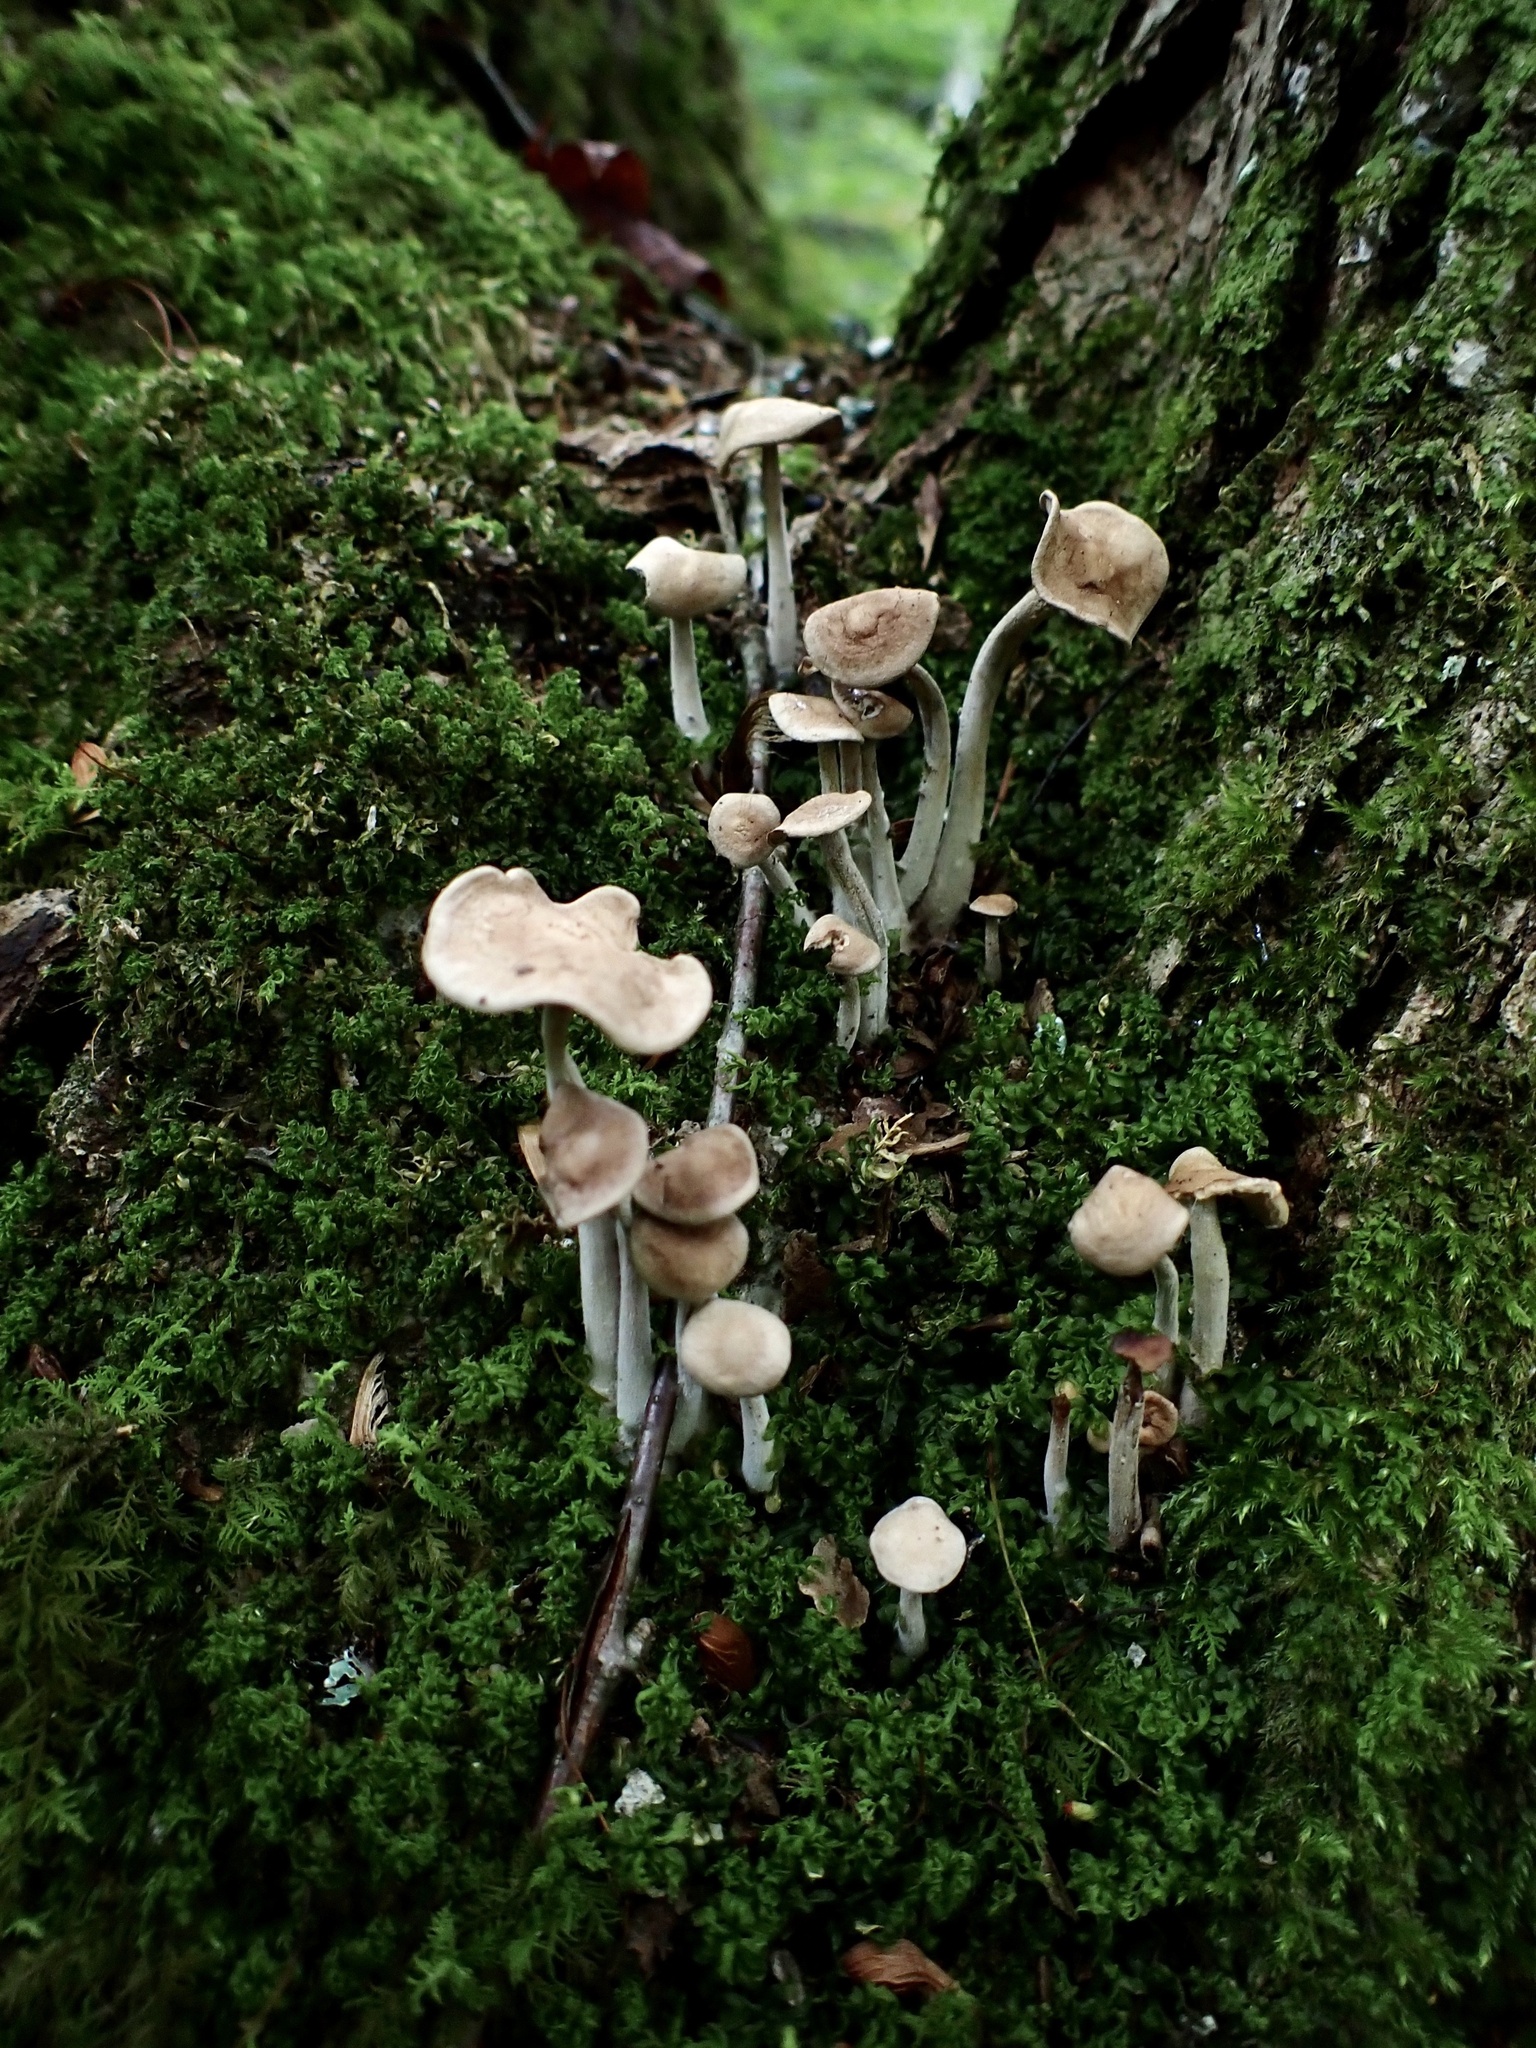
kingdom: Fungi
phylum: Basidiomycota
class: Agaricomycetes
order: Agaricales
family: Omphalotaceae
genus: Collybiopsis
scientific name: Collybiopsis confluens
